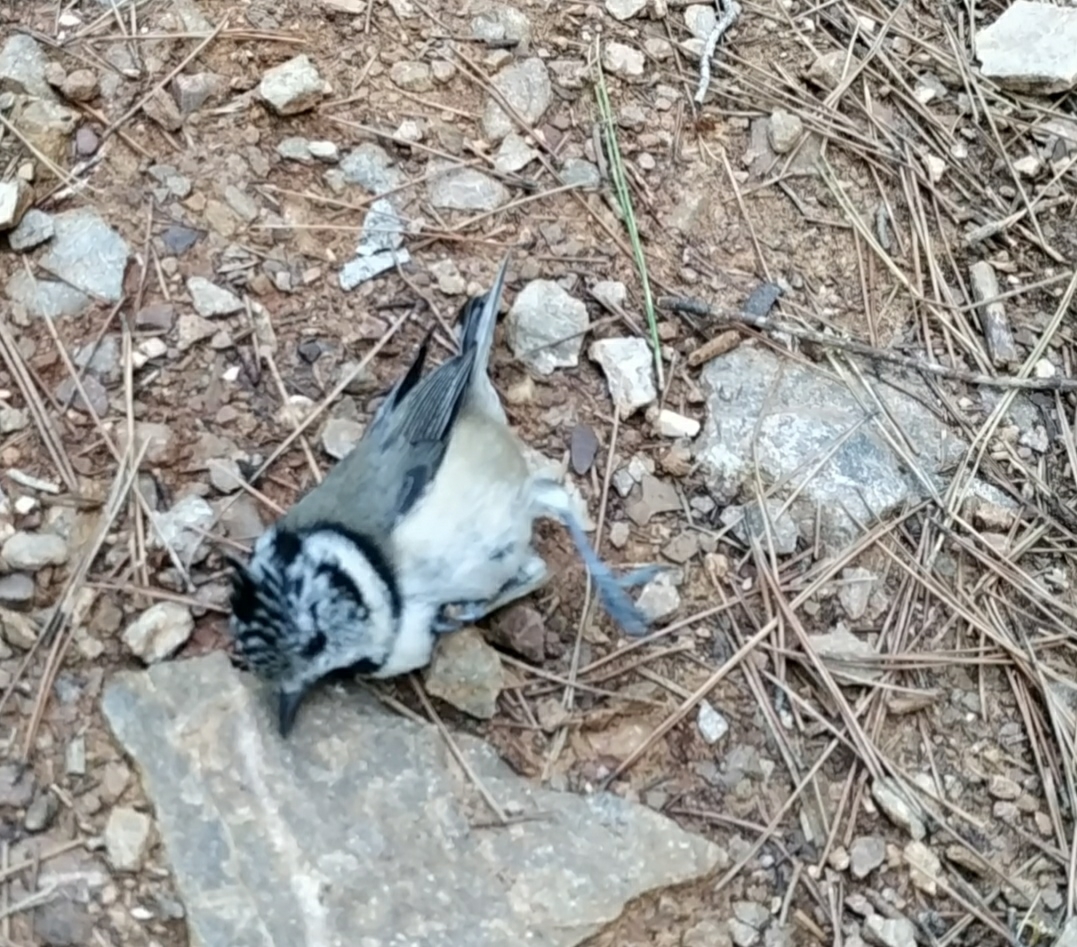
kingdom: Animalia
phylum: Chordata
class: Aves
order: Passeriformes
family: Paridae
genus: Lophophanes
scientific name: Lophophanes cristatus
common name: European crested tit
